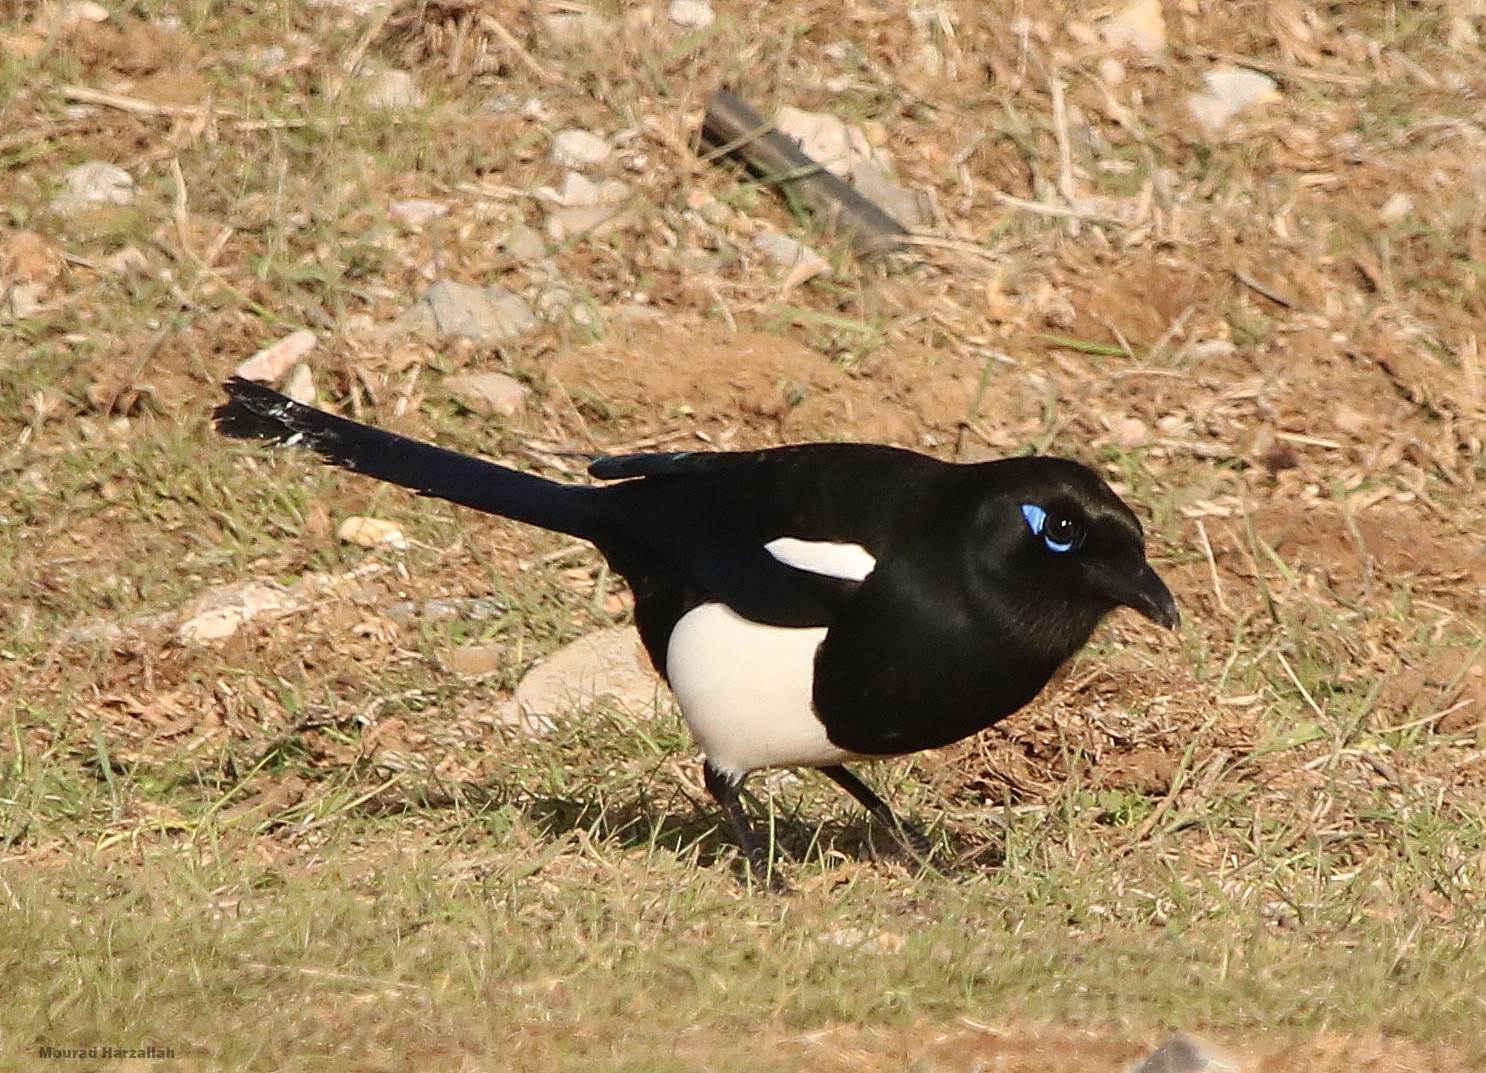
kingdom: Animalia
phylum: Chordata
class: Aves
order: Passeriformes
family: Corvidae
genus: Pica
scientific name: Pica mauritanica
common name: Maghreb magpie
